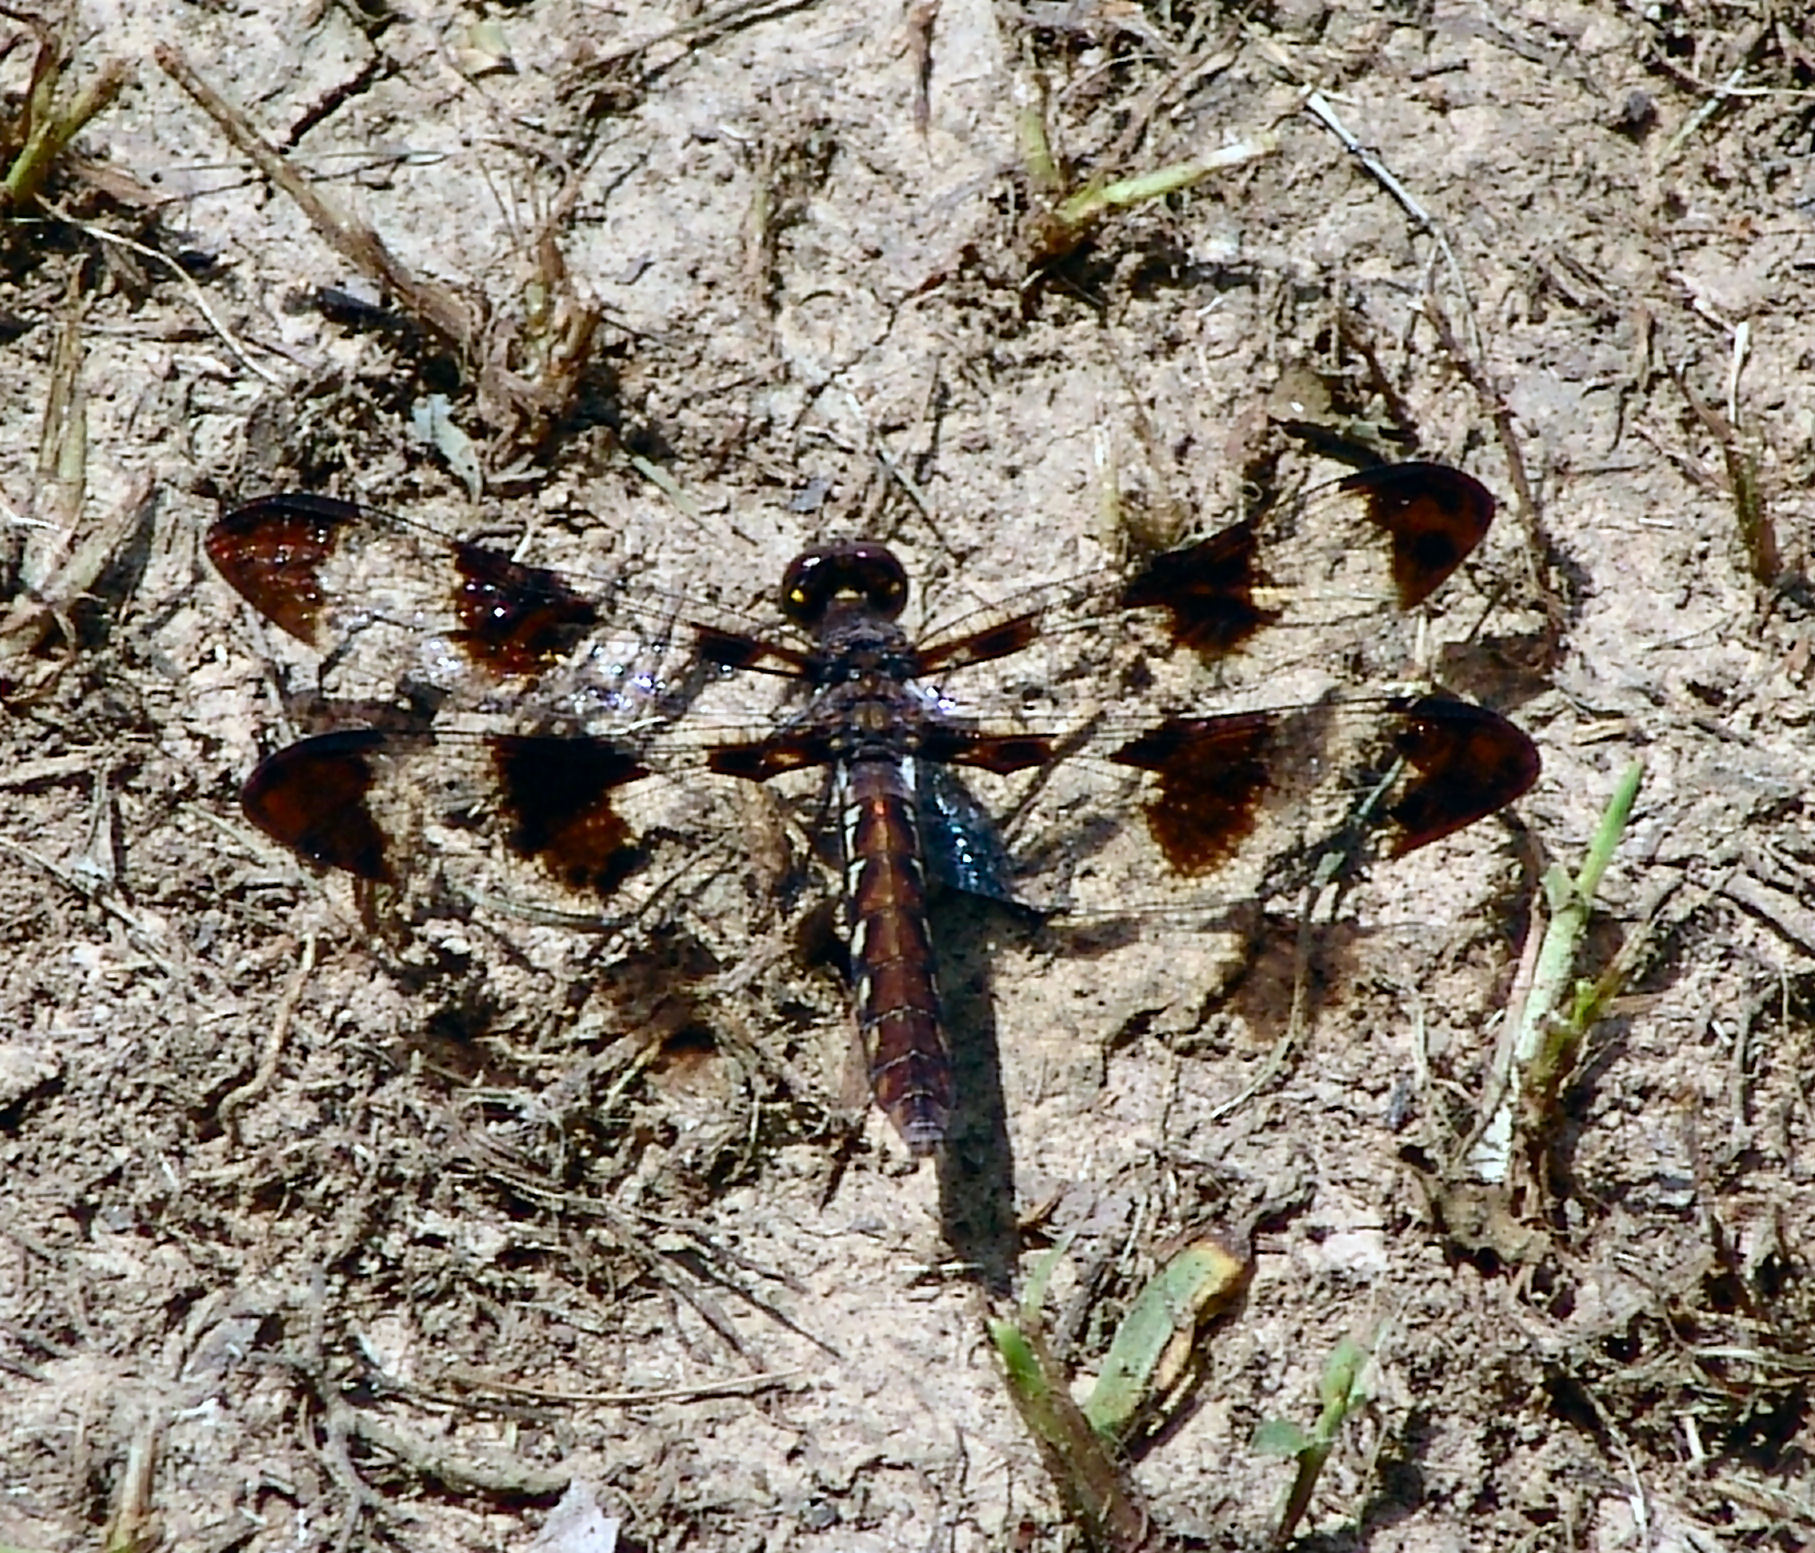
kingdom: Animalia
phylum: Arthropoda
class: Insecta
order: Odonata
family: Libellulidae
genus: Plathemis
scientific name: Plathemis lydia
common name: Common whitetail
